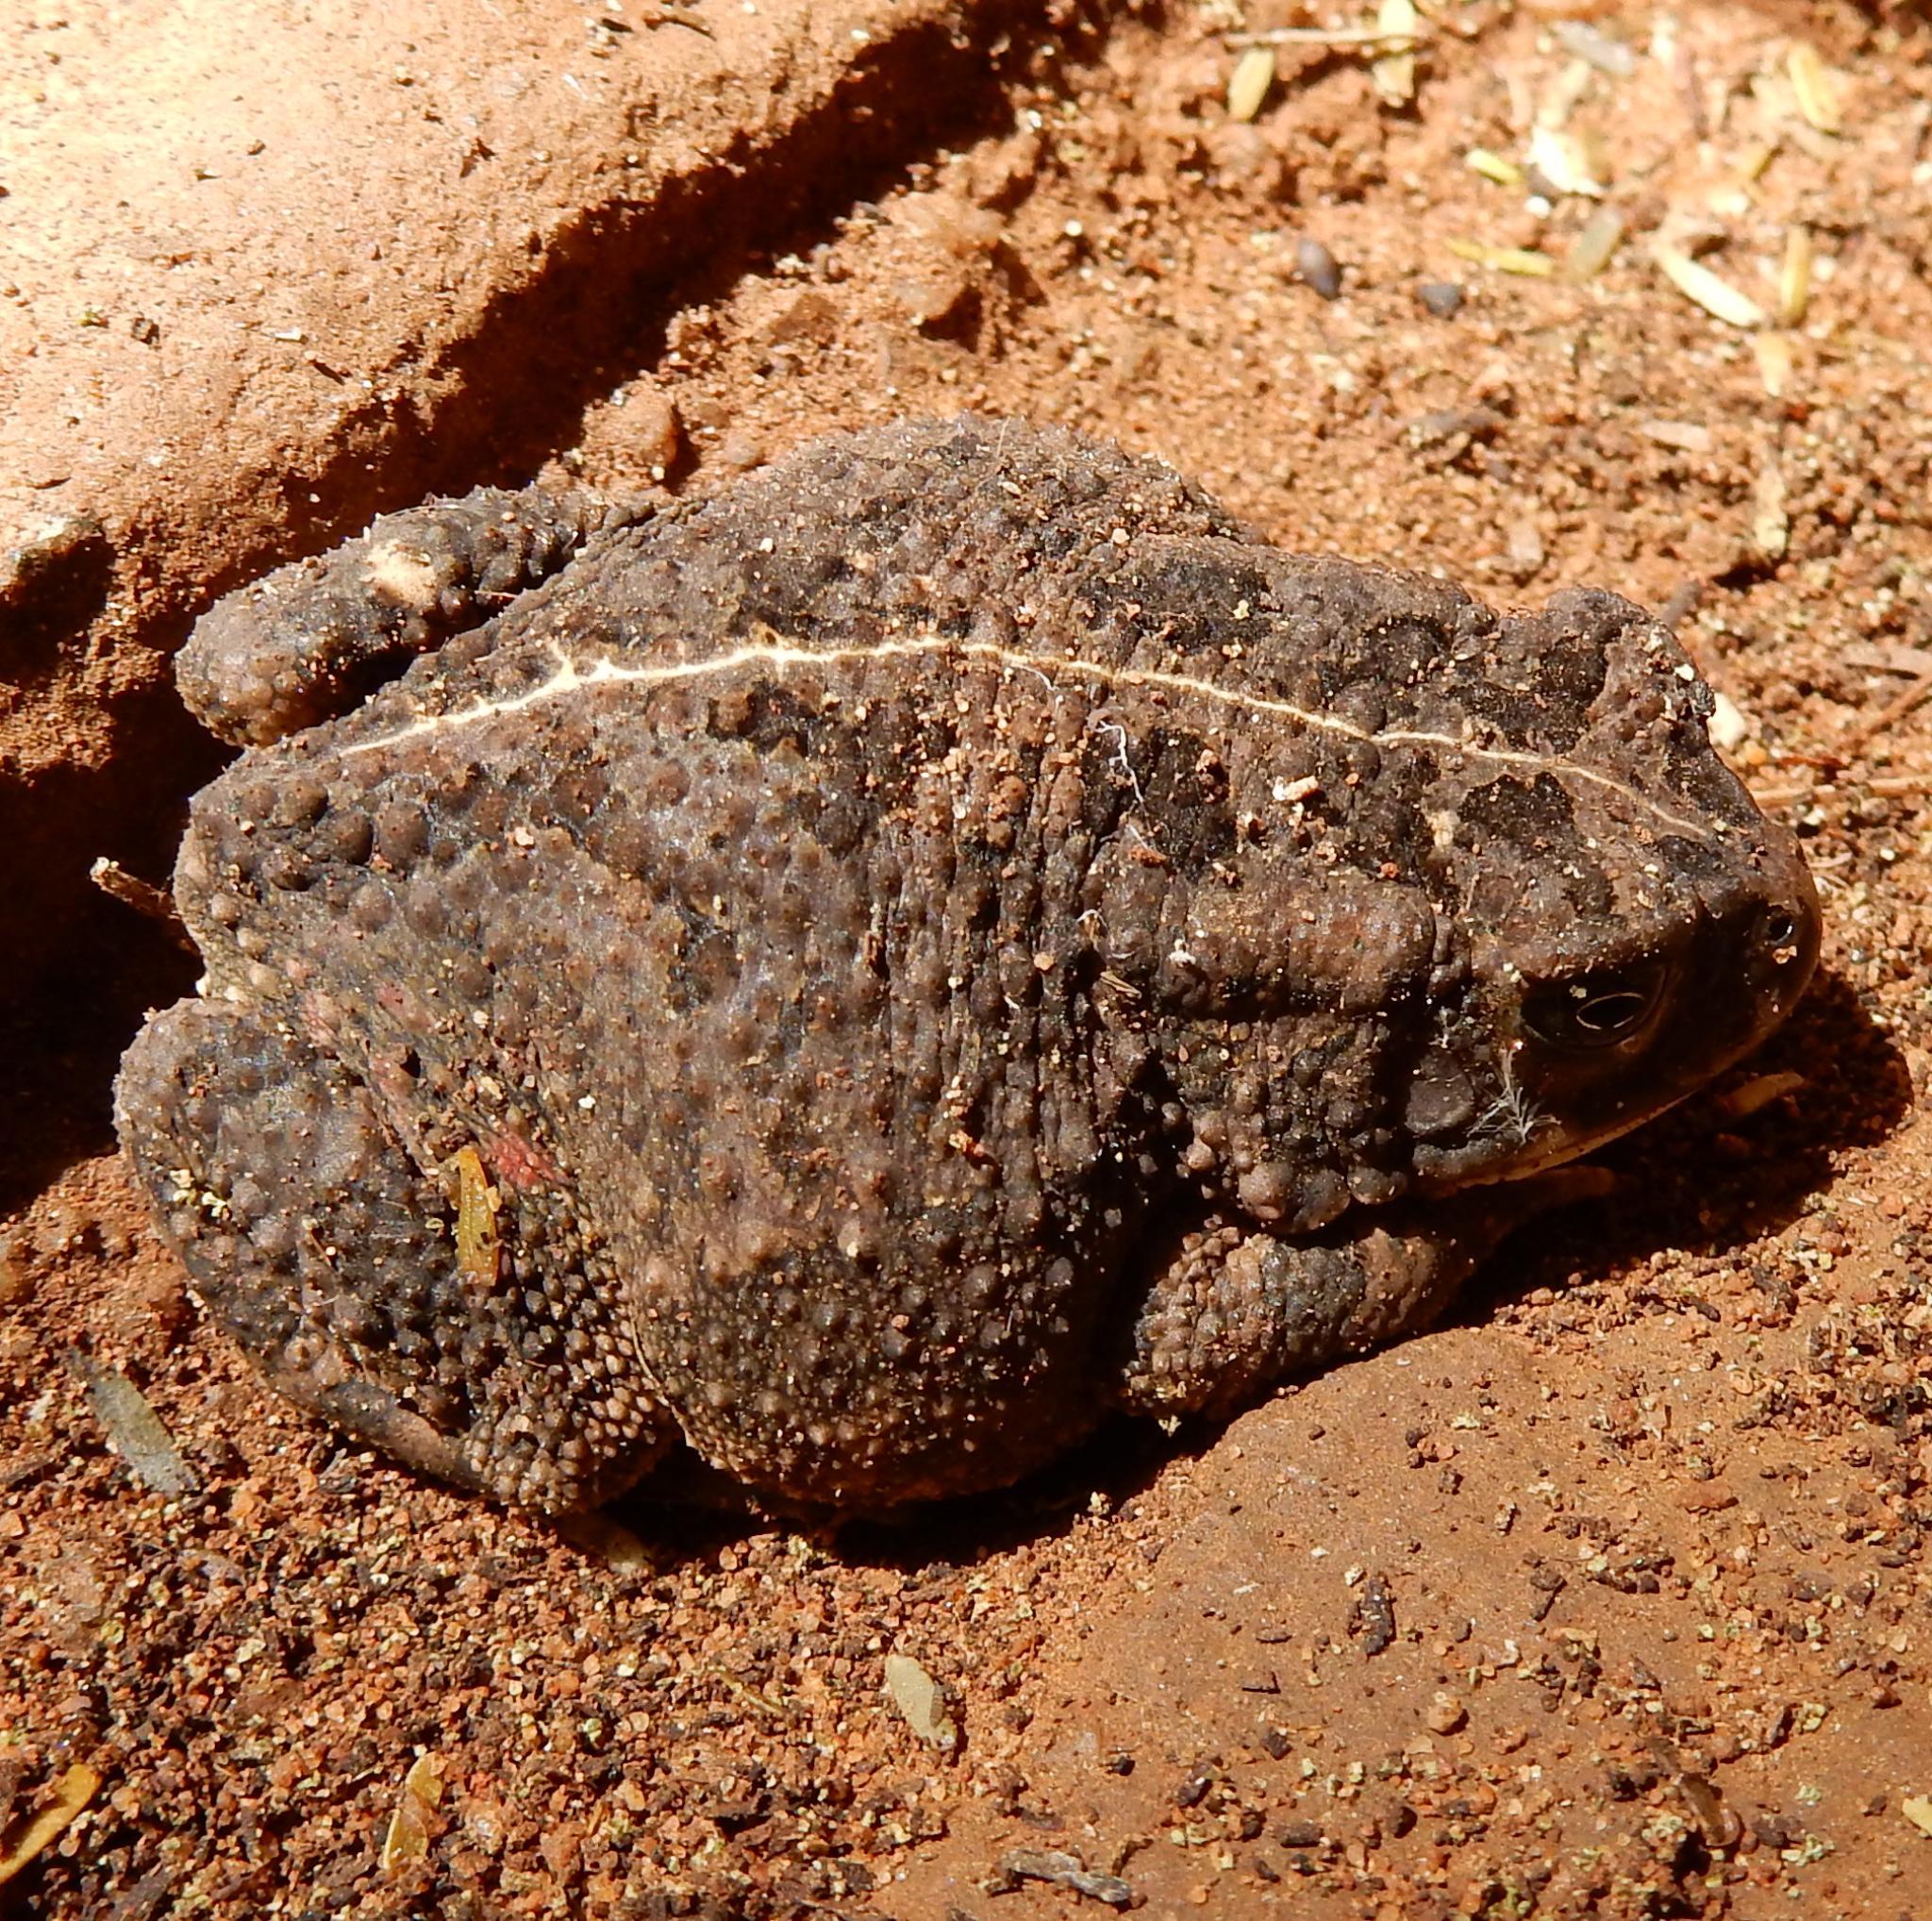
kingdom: Animalia
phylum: Chordata
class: Amphibia
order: Anura
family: Bufonidae
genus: Sclerophrys
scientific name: Sclerophrys gutturalis
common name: African common toad
